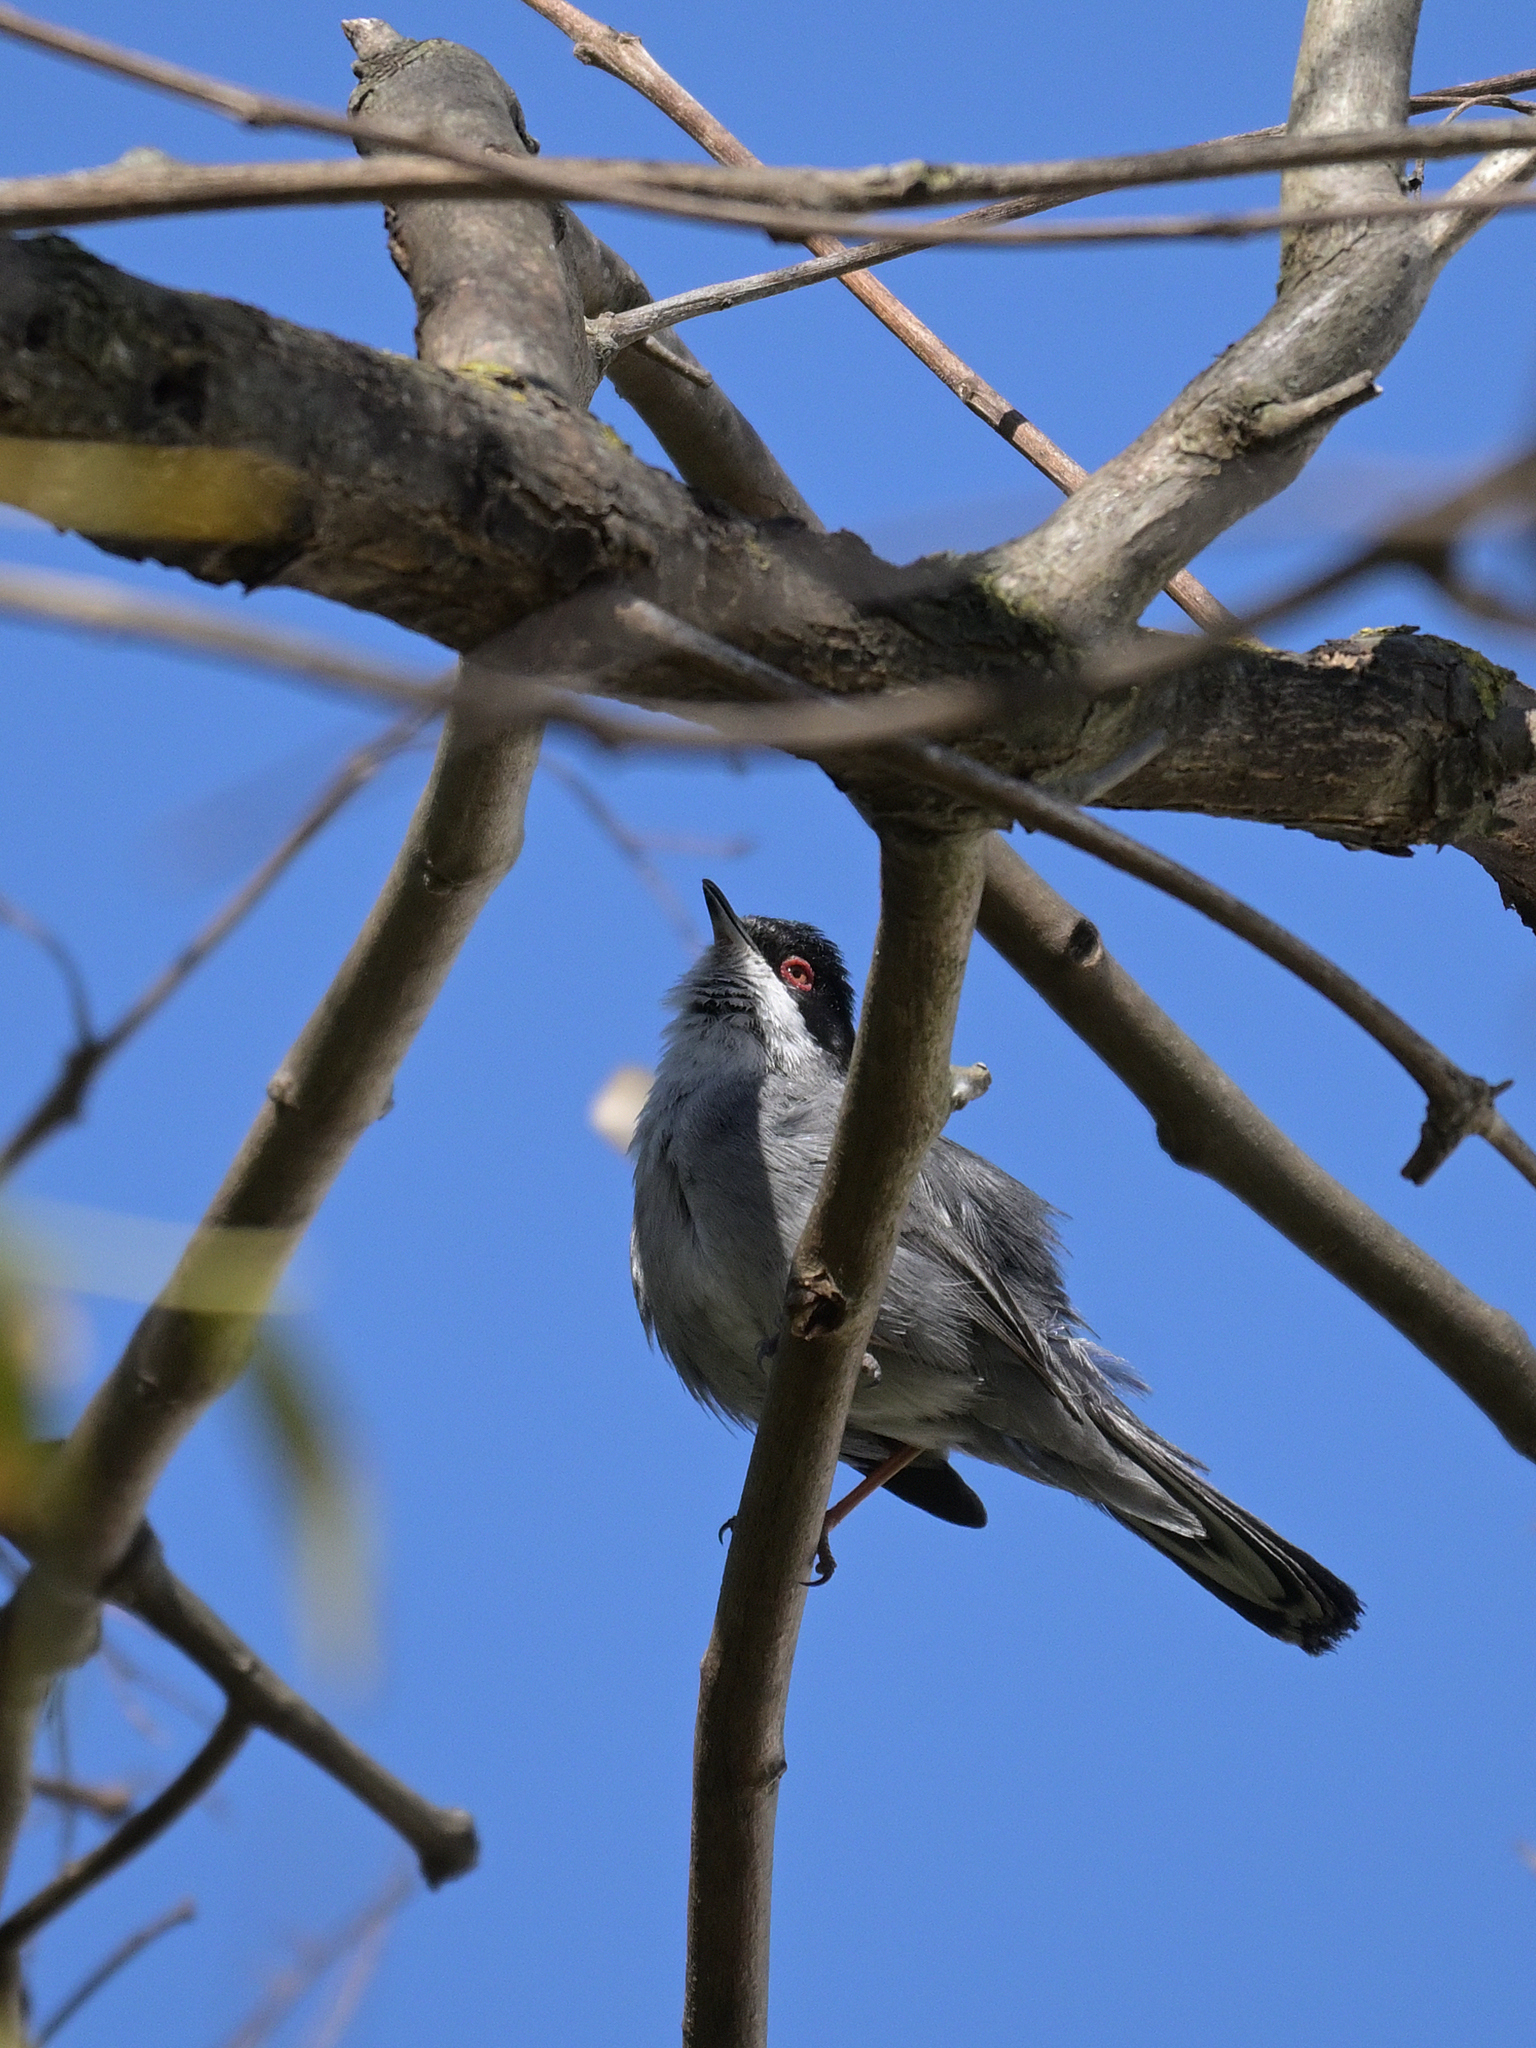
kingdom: Animalia
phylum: Chordata
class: Aves
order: Passeriformes
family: Sylviidae
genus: Curruca
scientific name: Curruca melanocephala
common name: Sardinian warbler
